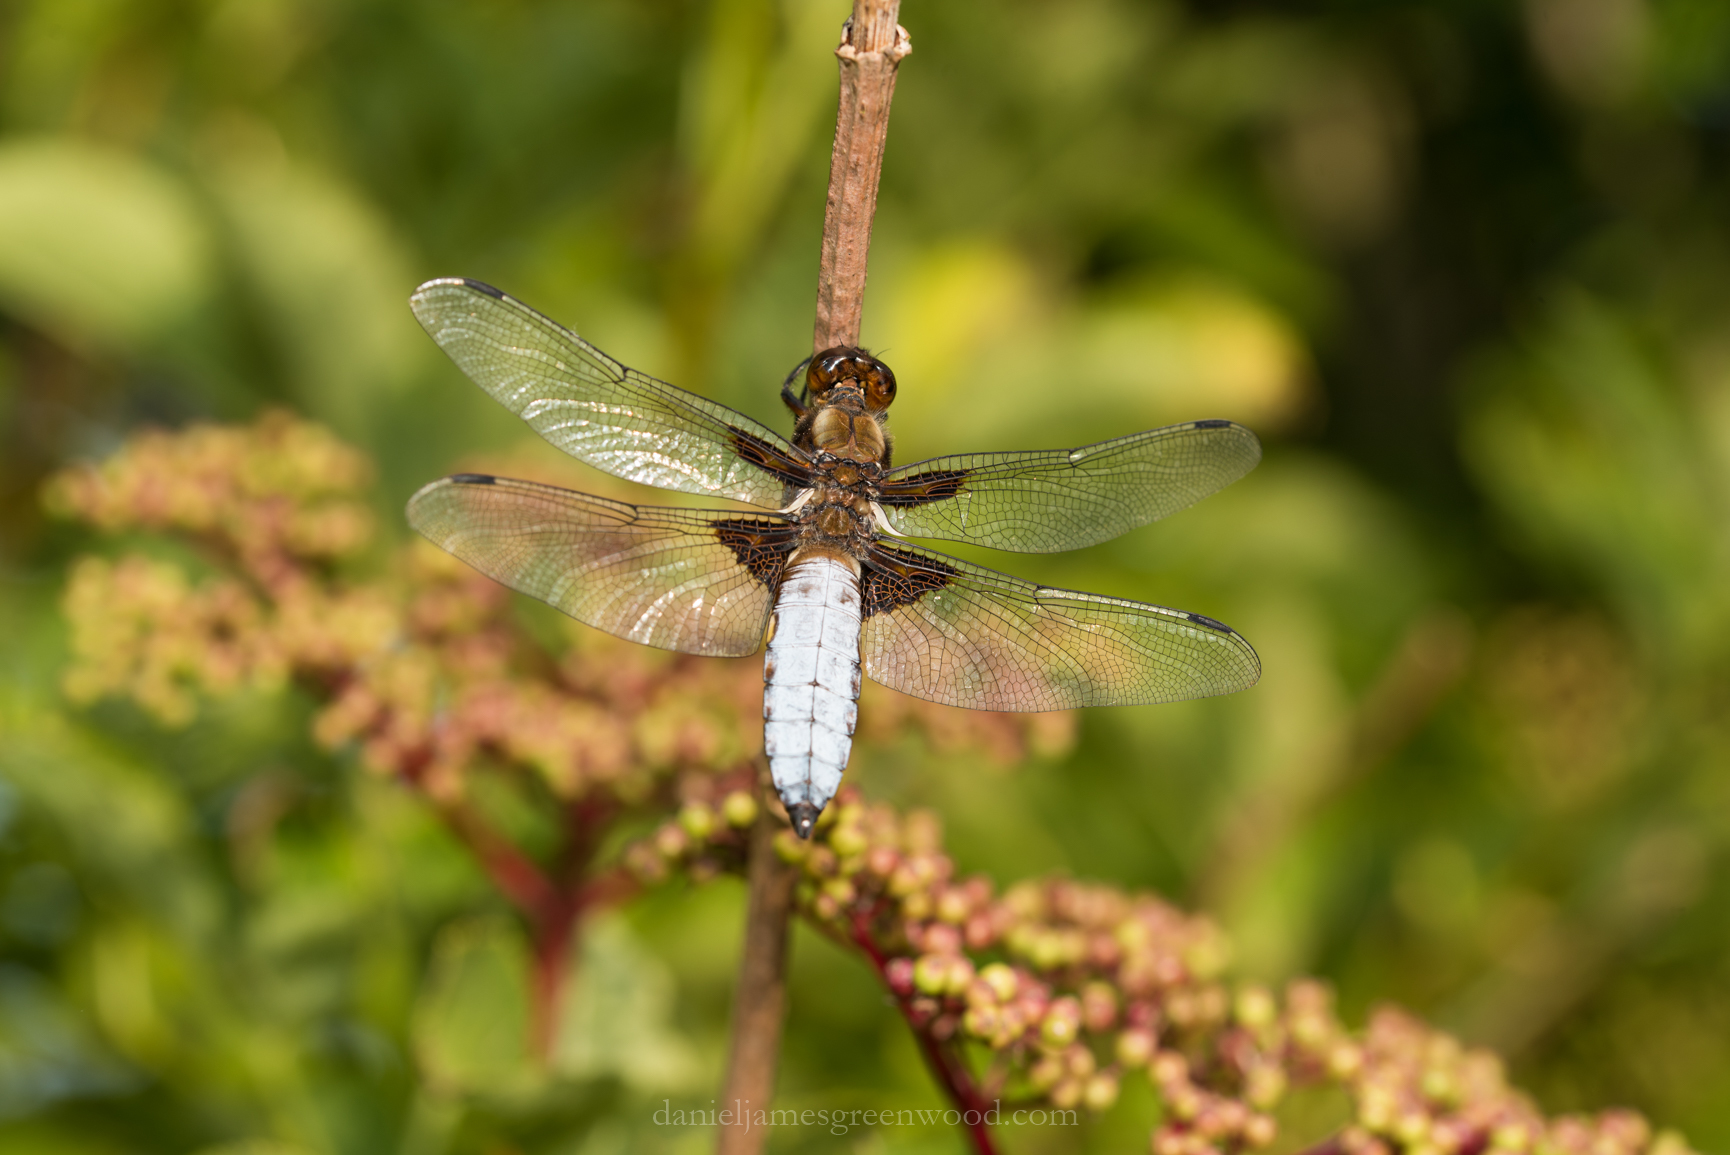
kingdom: Animalia
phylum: Arthropoda
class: Insecta
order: Odonata
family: Libellulidae
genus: Libellula
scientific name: Libellula depressa
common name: Broad-bodied chaser
